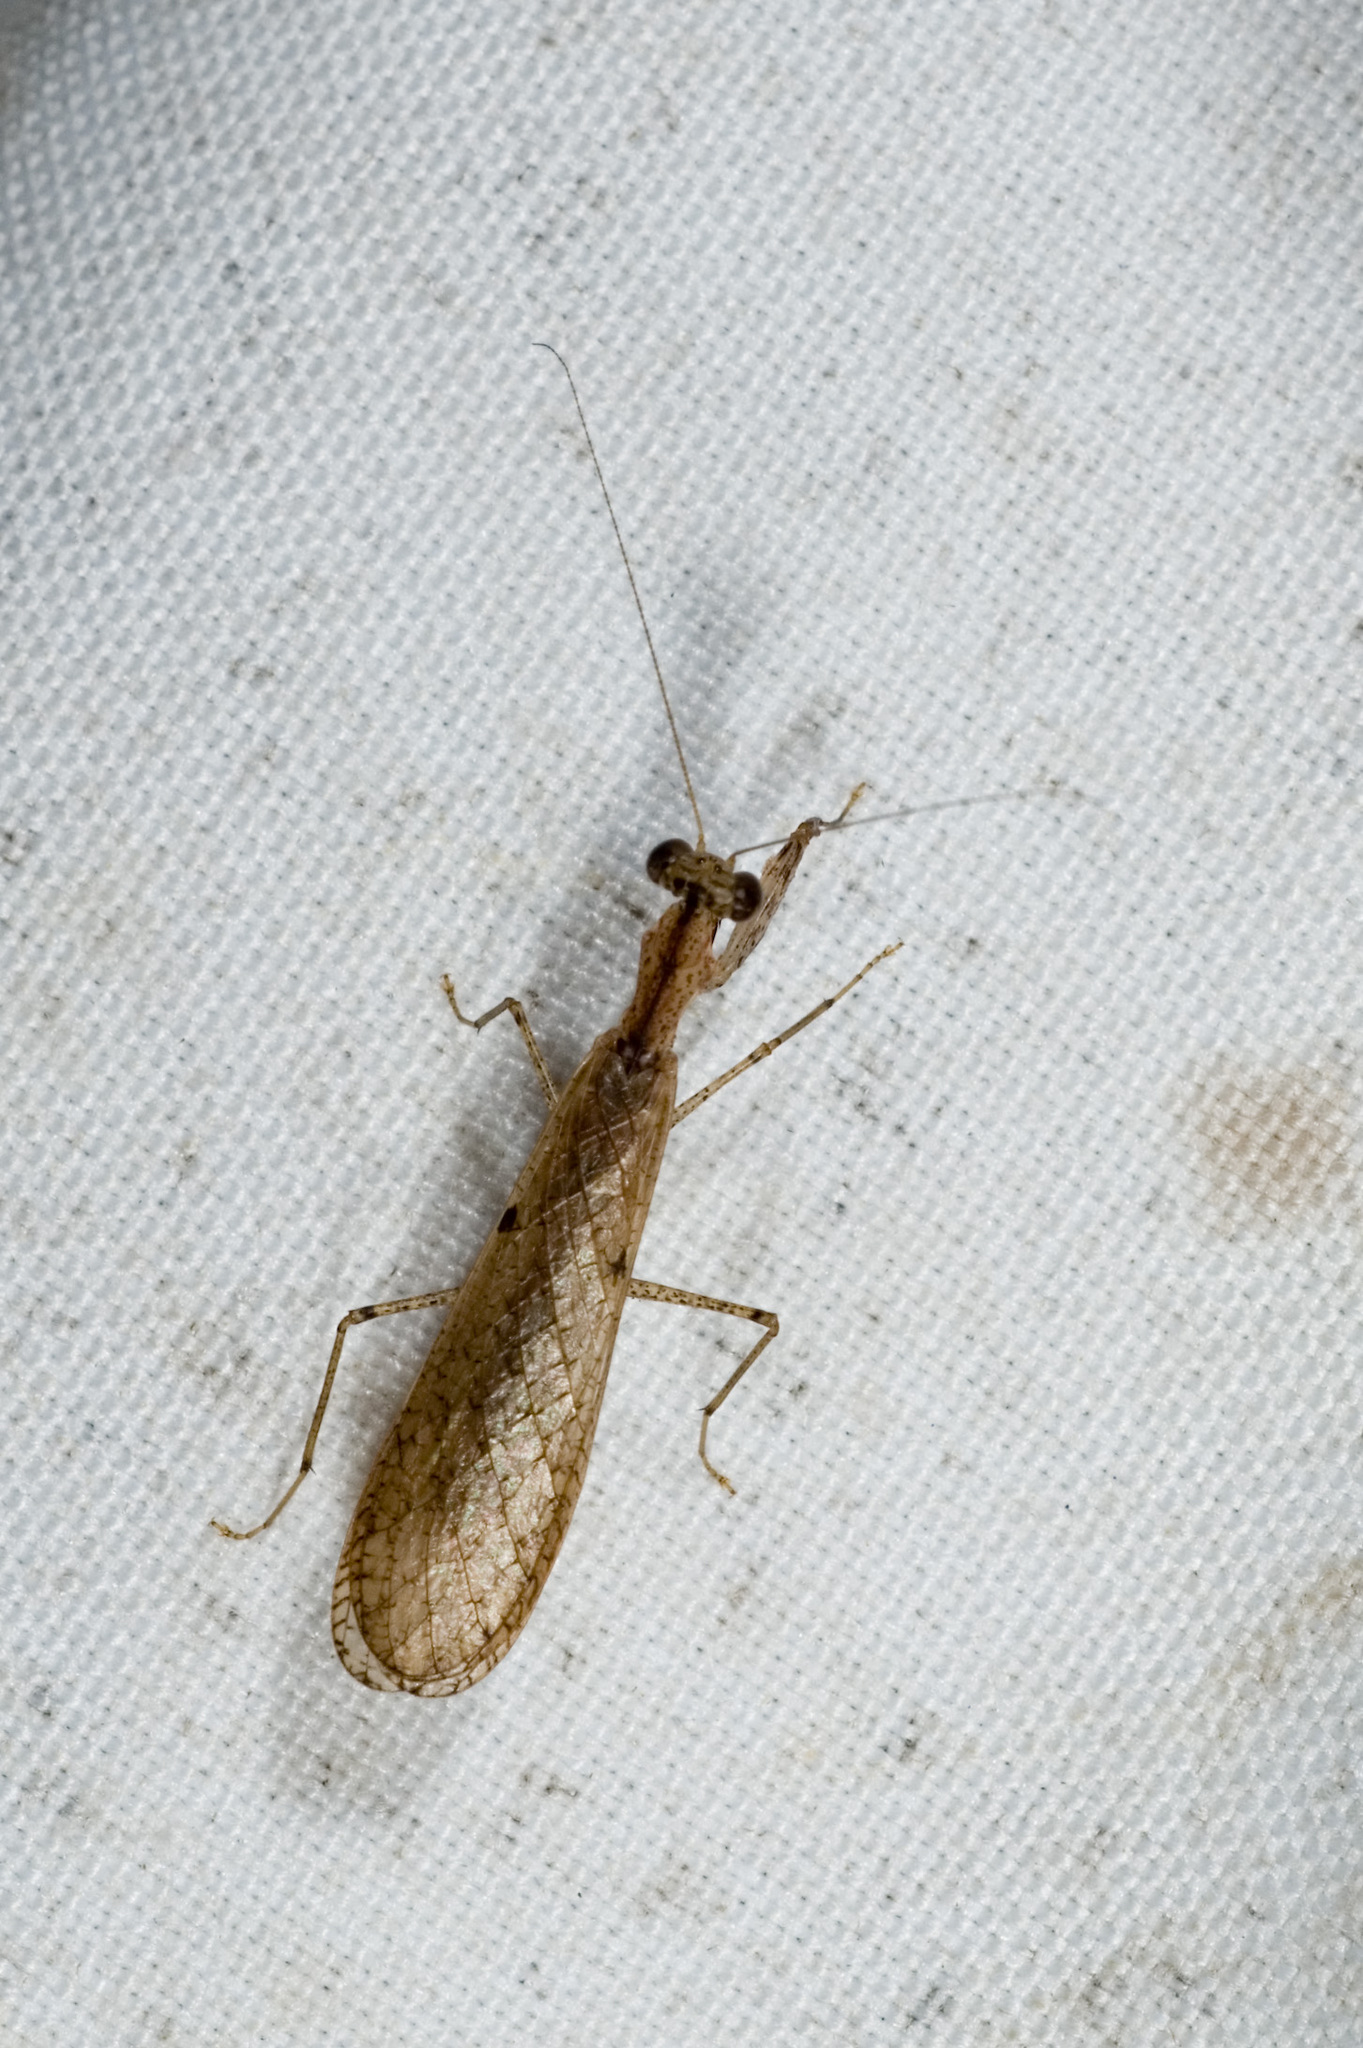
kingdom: Animalia
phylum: Arthropoda
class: Insecta
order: Mantodea
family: Gonypetidae
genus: Amantis
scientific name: Amantis nawai
